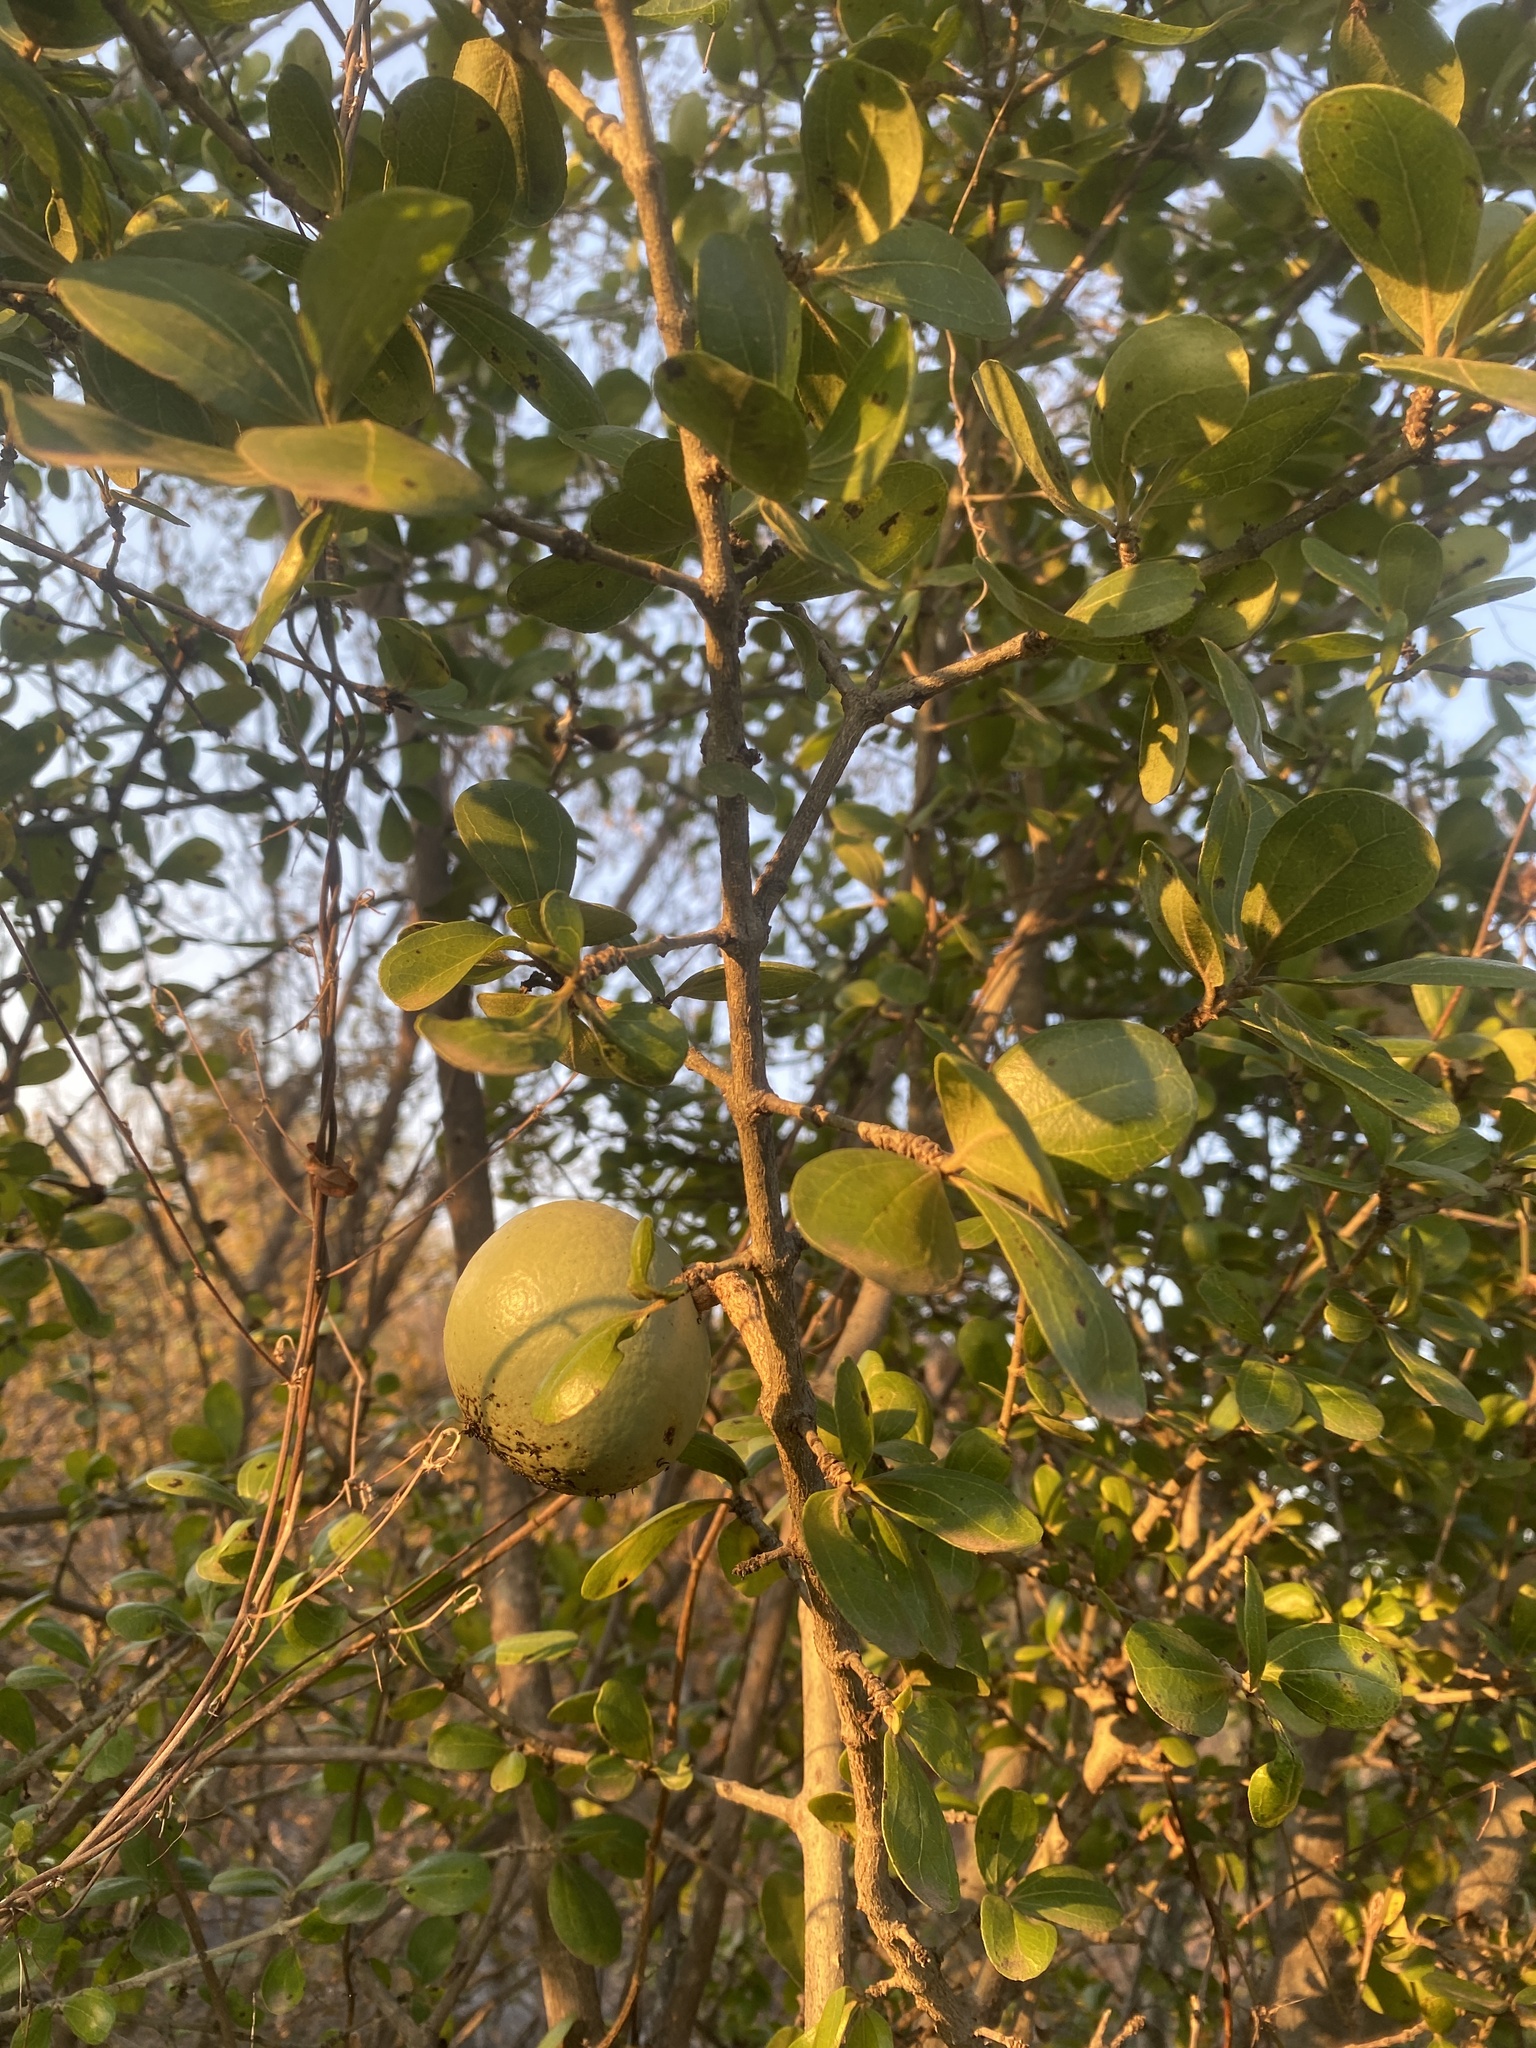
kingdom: Plantae
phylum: Tracheophyta
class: Magnoliopsida
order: Gentianales
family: Loganiaceae
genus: Strychnos
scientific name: Strychnos madagascariensis
